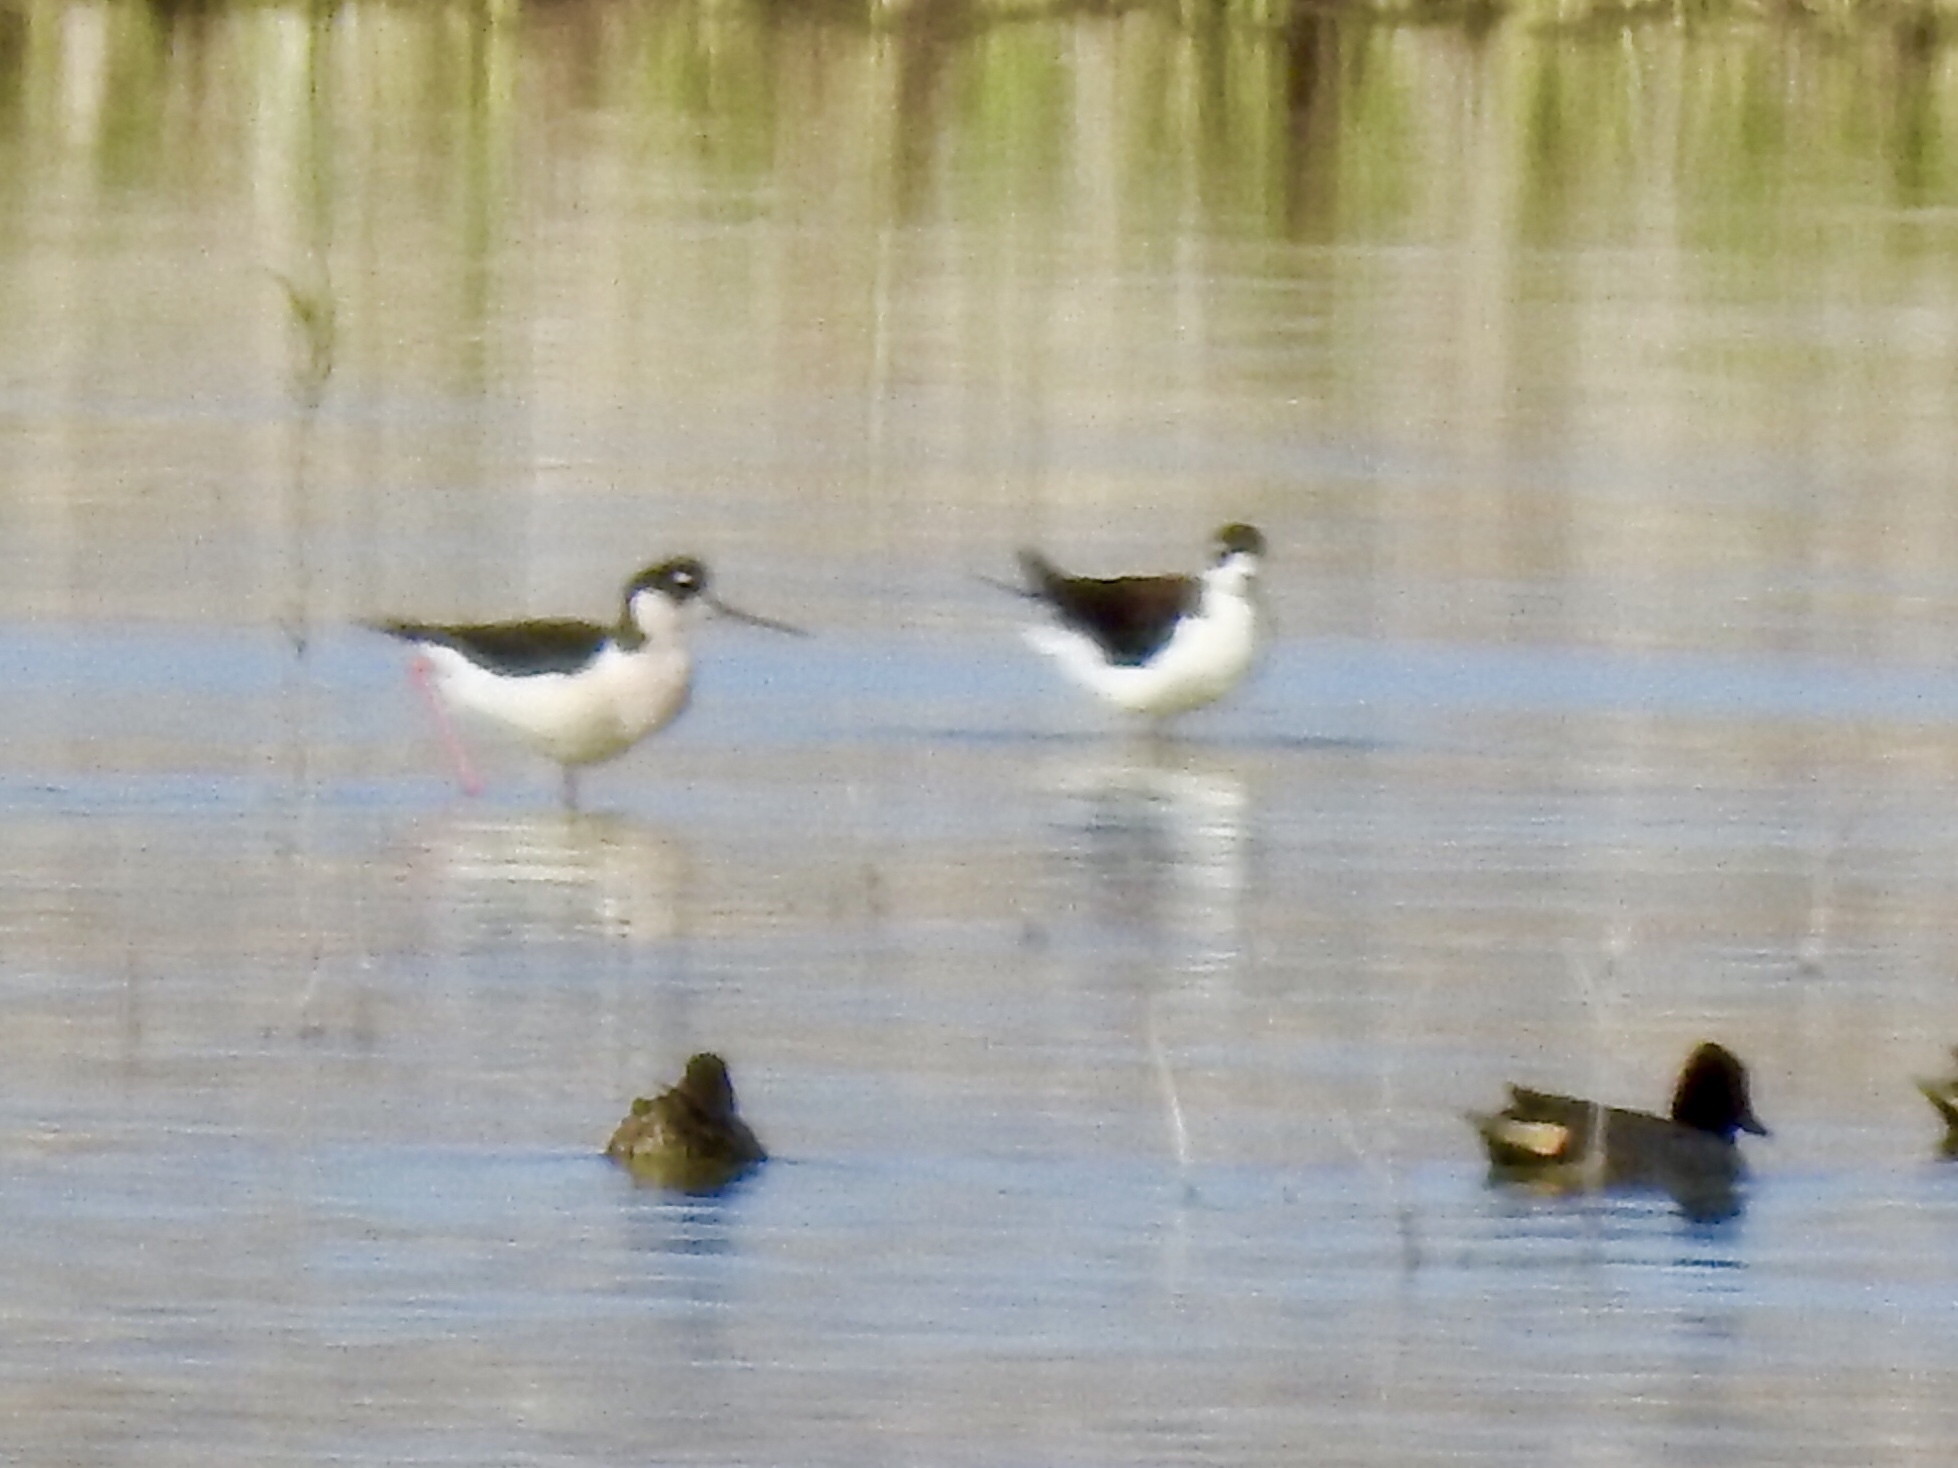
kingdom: Animalia
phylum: Chordata
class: Aves
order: Charadriiformes
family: Recurvirostridae
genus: Himantopus
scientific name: Himantopus mexicanus
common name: Black-necked stilt
